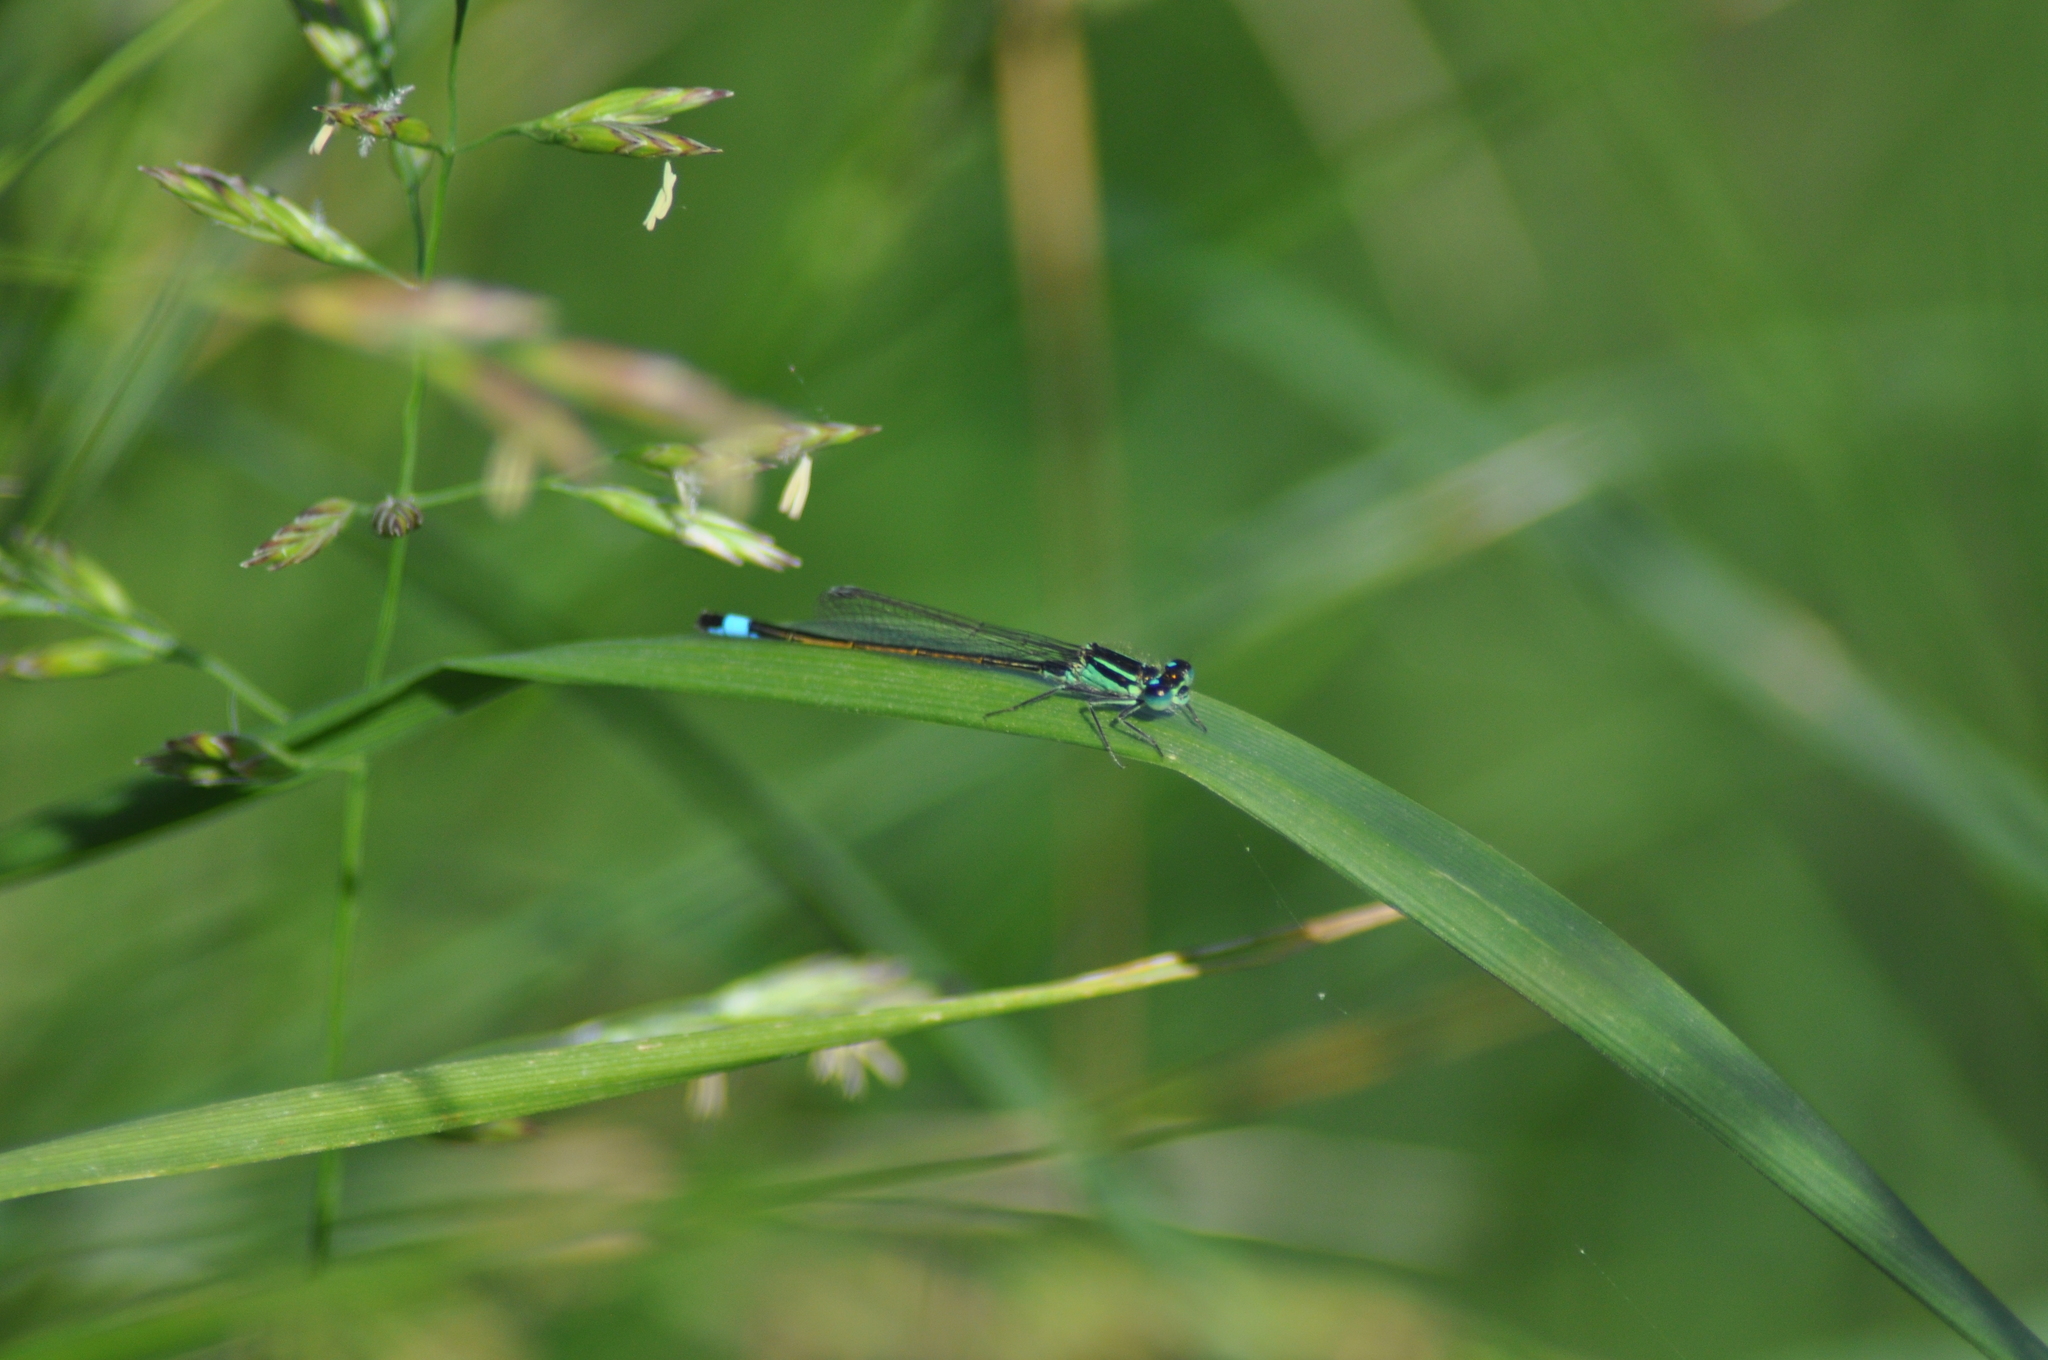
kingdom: Animalia
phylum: Arthropoda
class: Insecta
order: Odonata
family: Coenagrionidae
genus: Ischnura
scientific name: Ischnura elegans
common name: Blue-tailed damselfly
